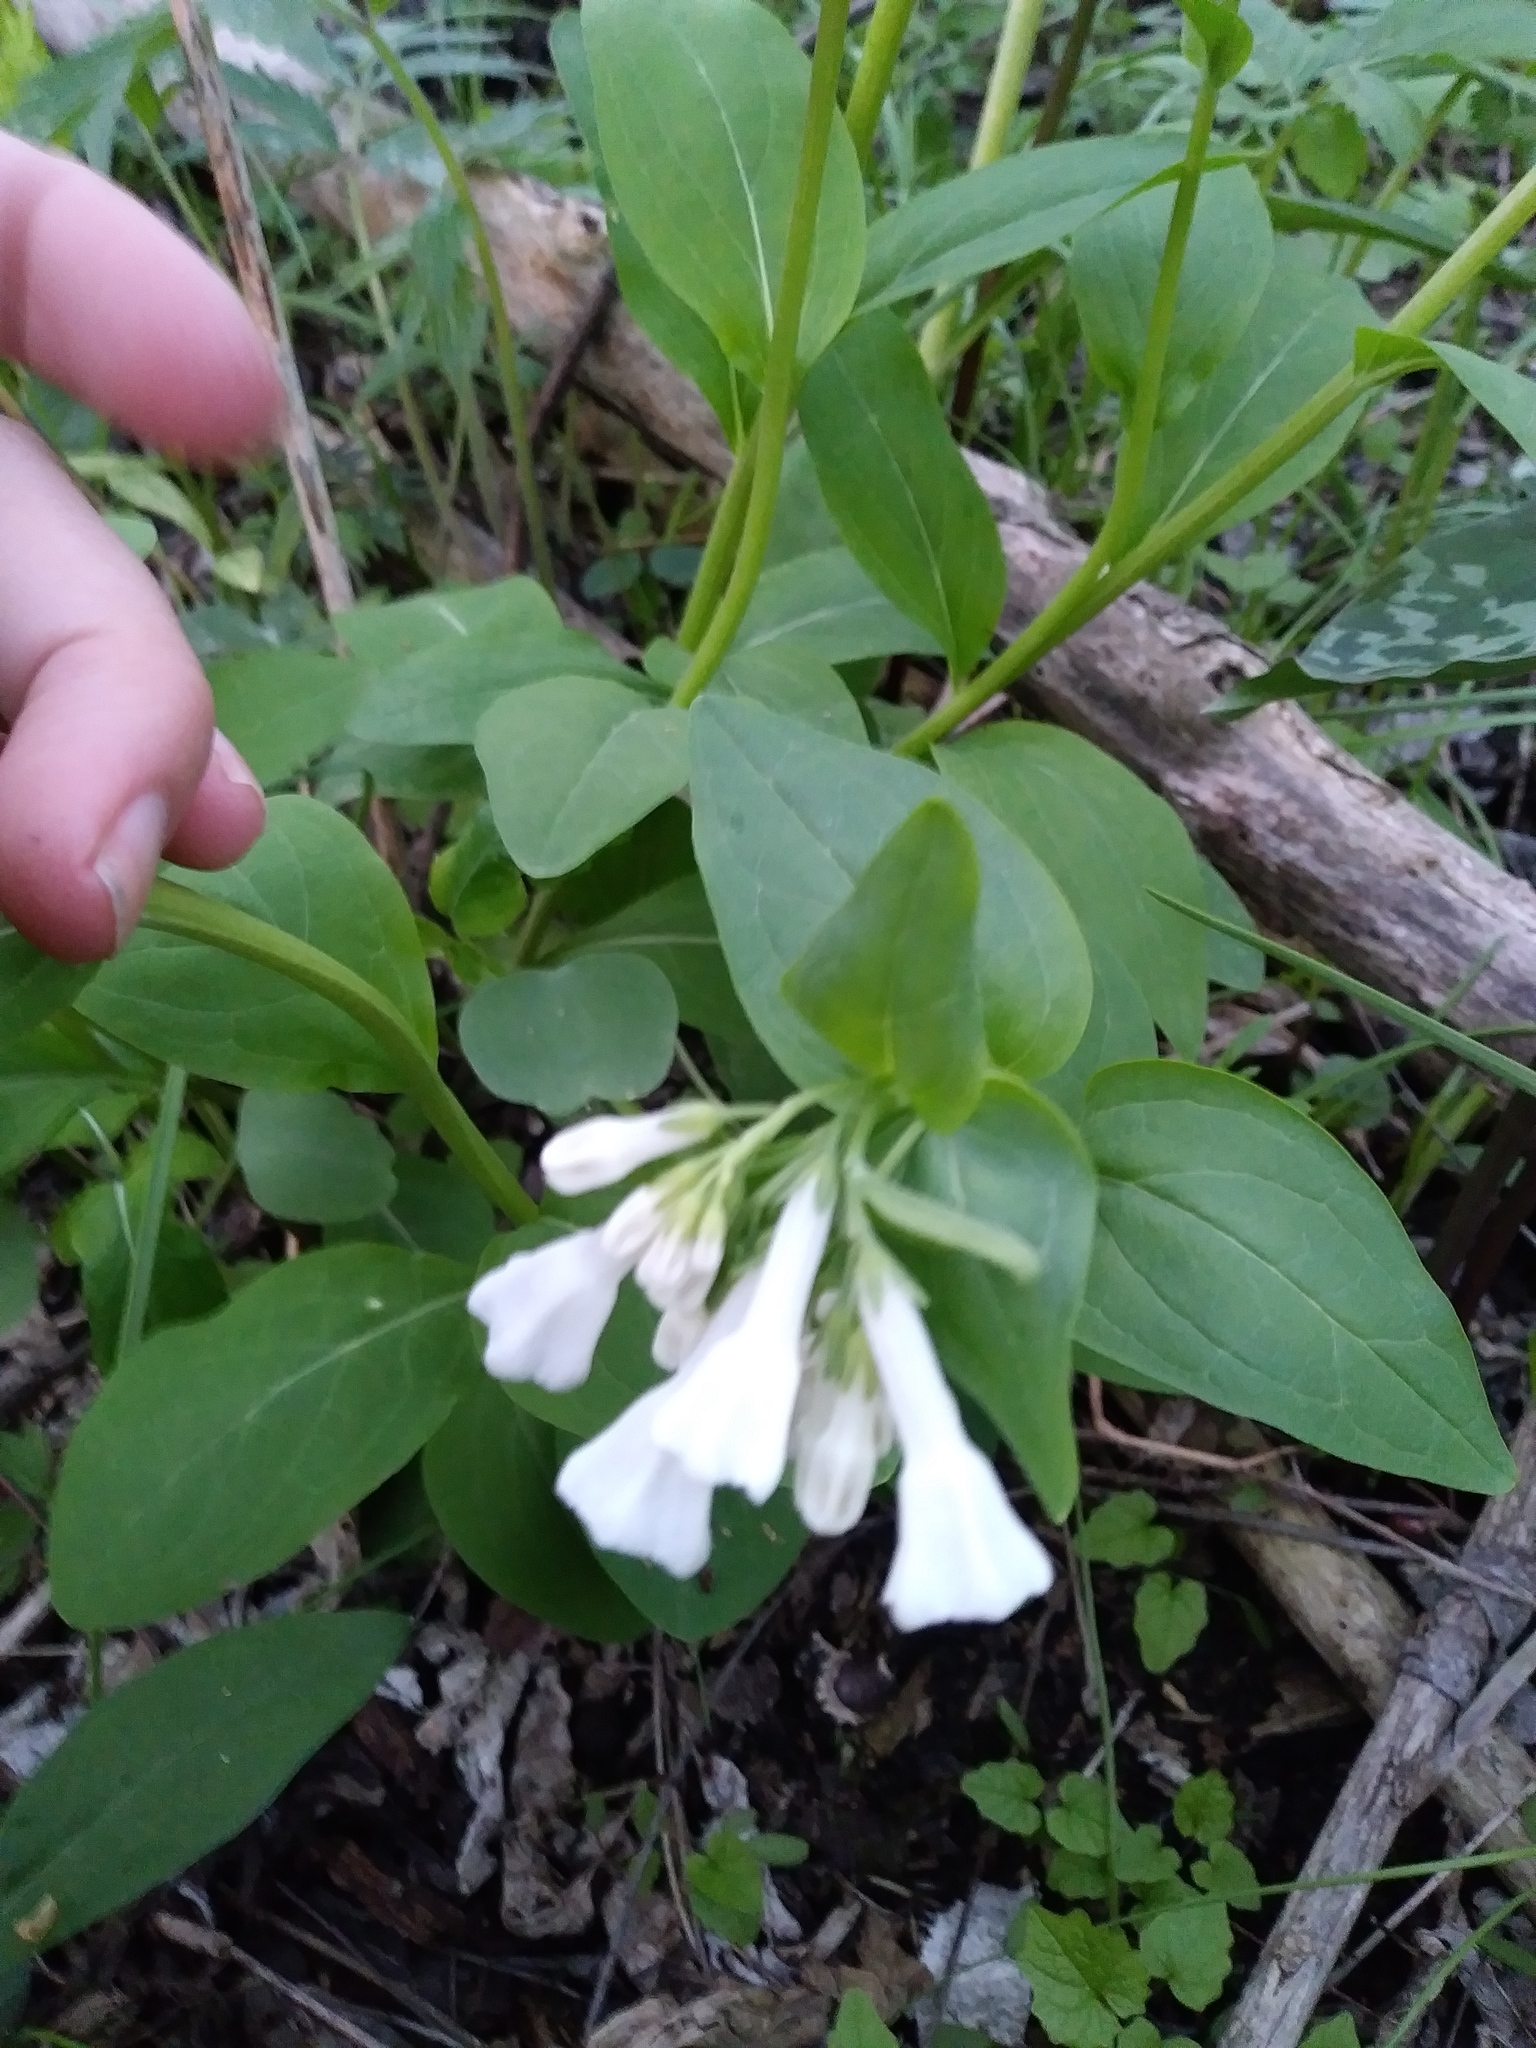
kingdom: Plantae
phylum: Tracheophyta
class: Magnoliopsida
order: Boraginales
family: Boraginaceae
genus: Mertensia
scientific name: Mertensia virginica
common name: Virginia bluebells
